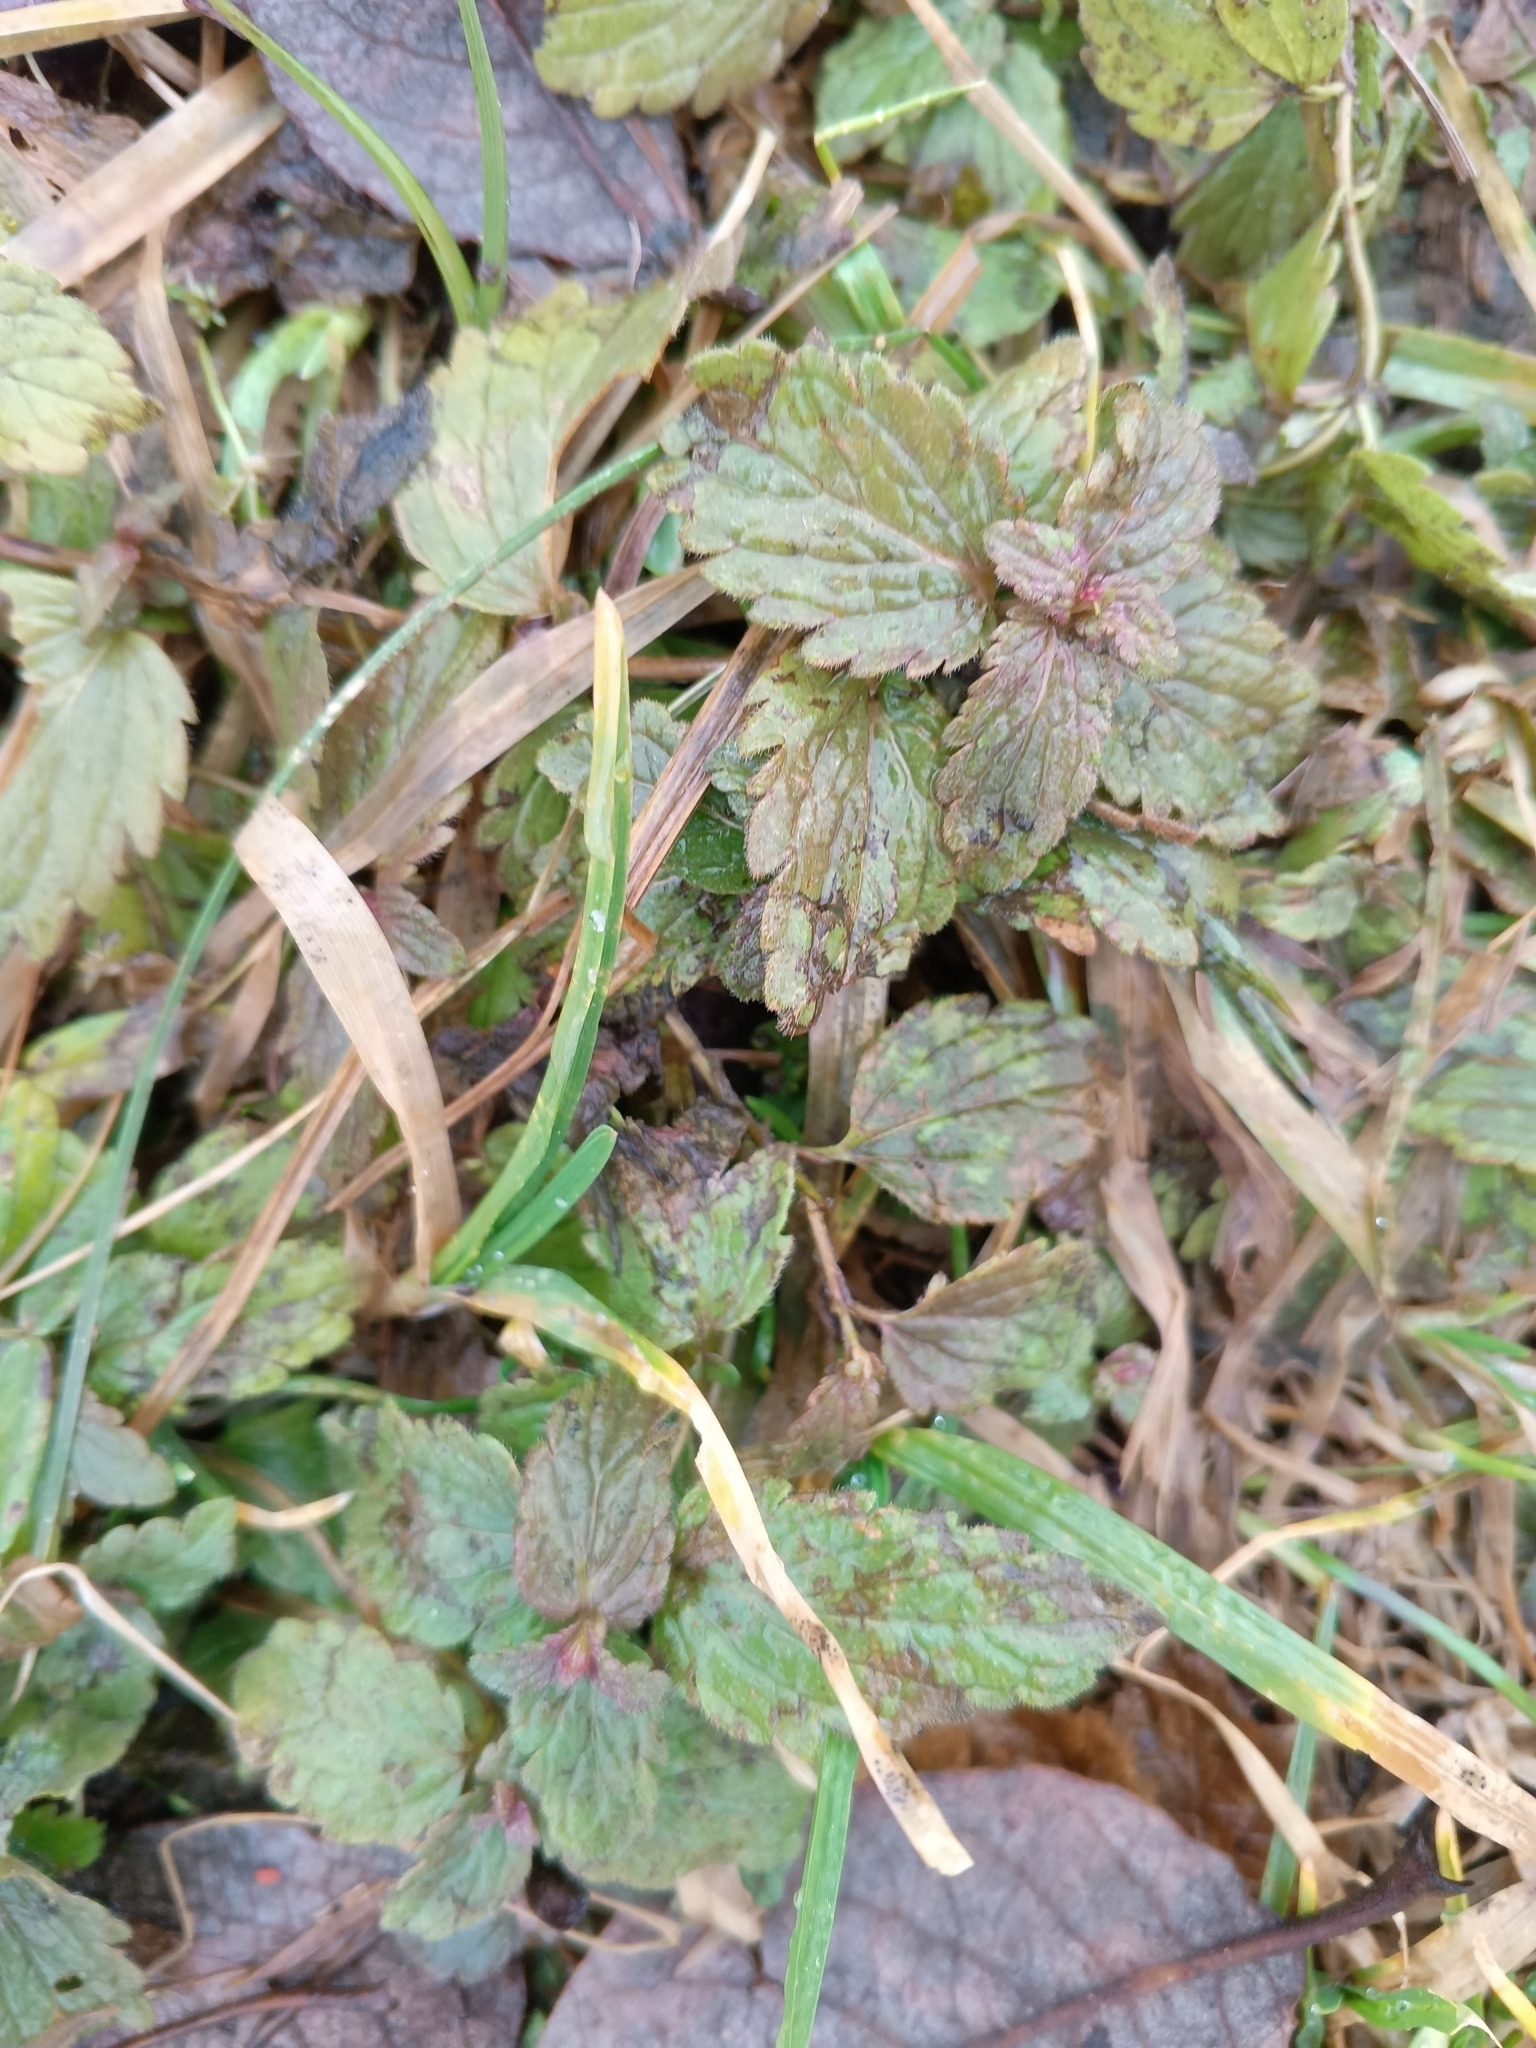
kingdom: Plantae
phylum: Tracheophyta
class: Magnoliopsida
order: Lamiales
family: Plantaginaceae
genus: Veronica
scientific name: Veronica chamaedrys
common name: Germander speedwell
